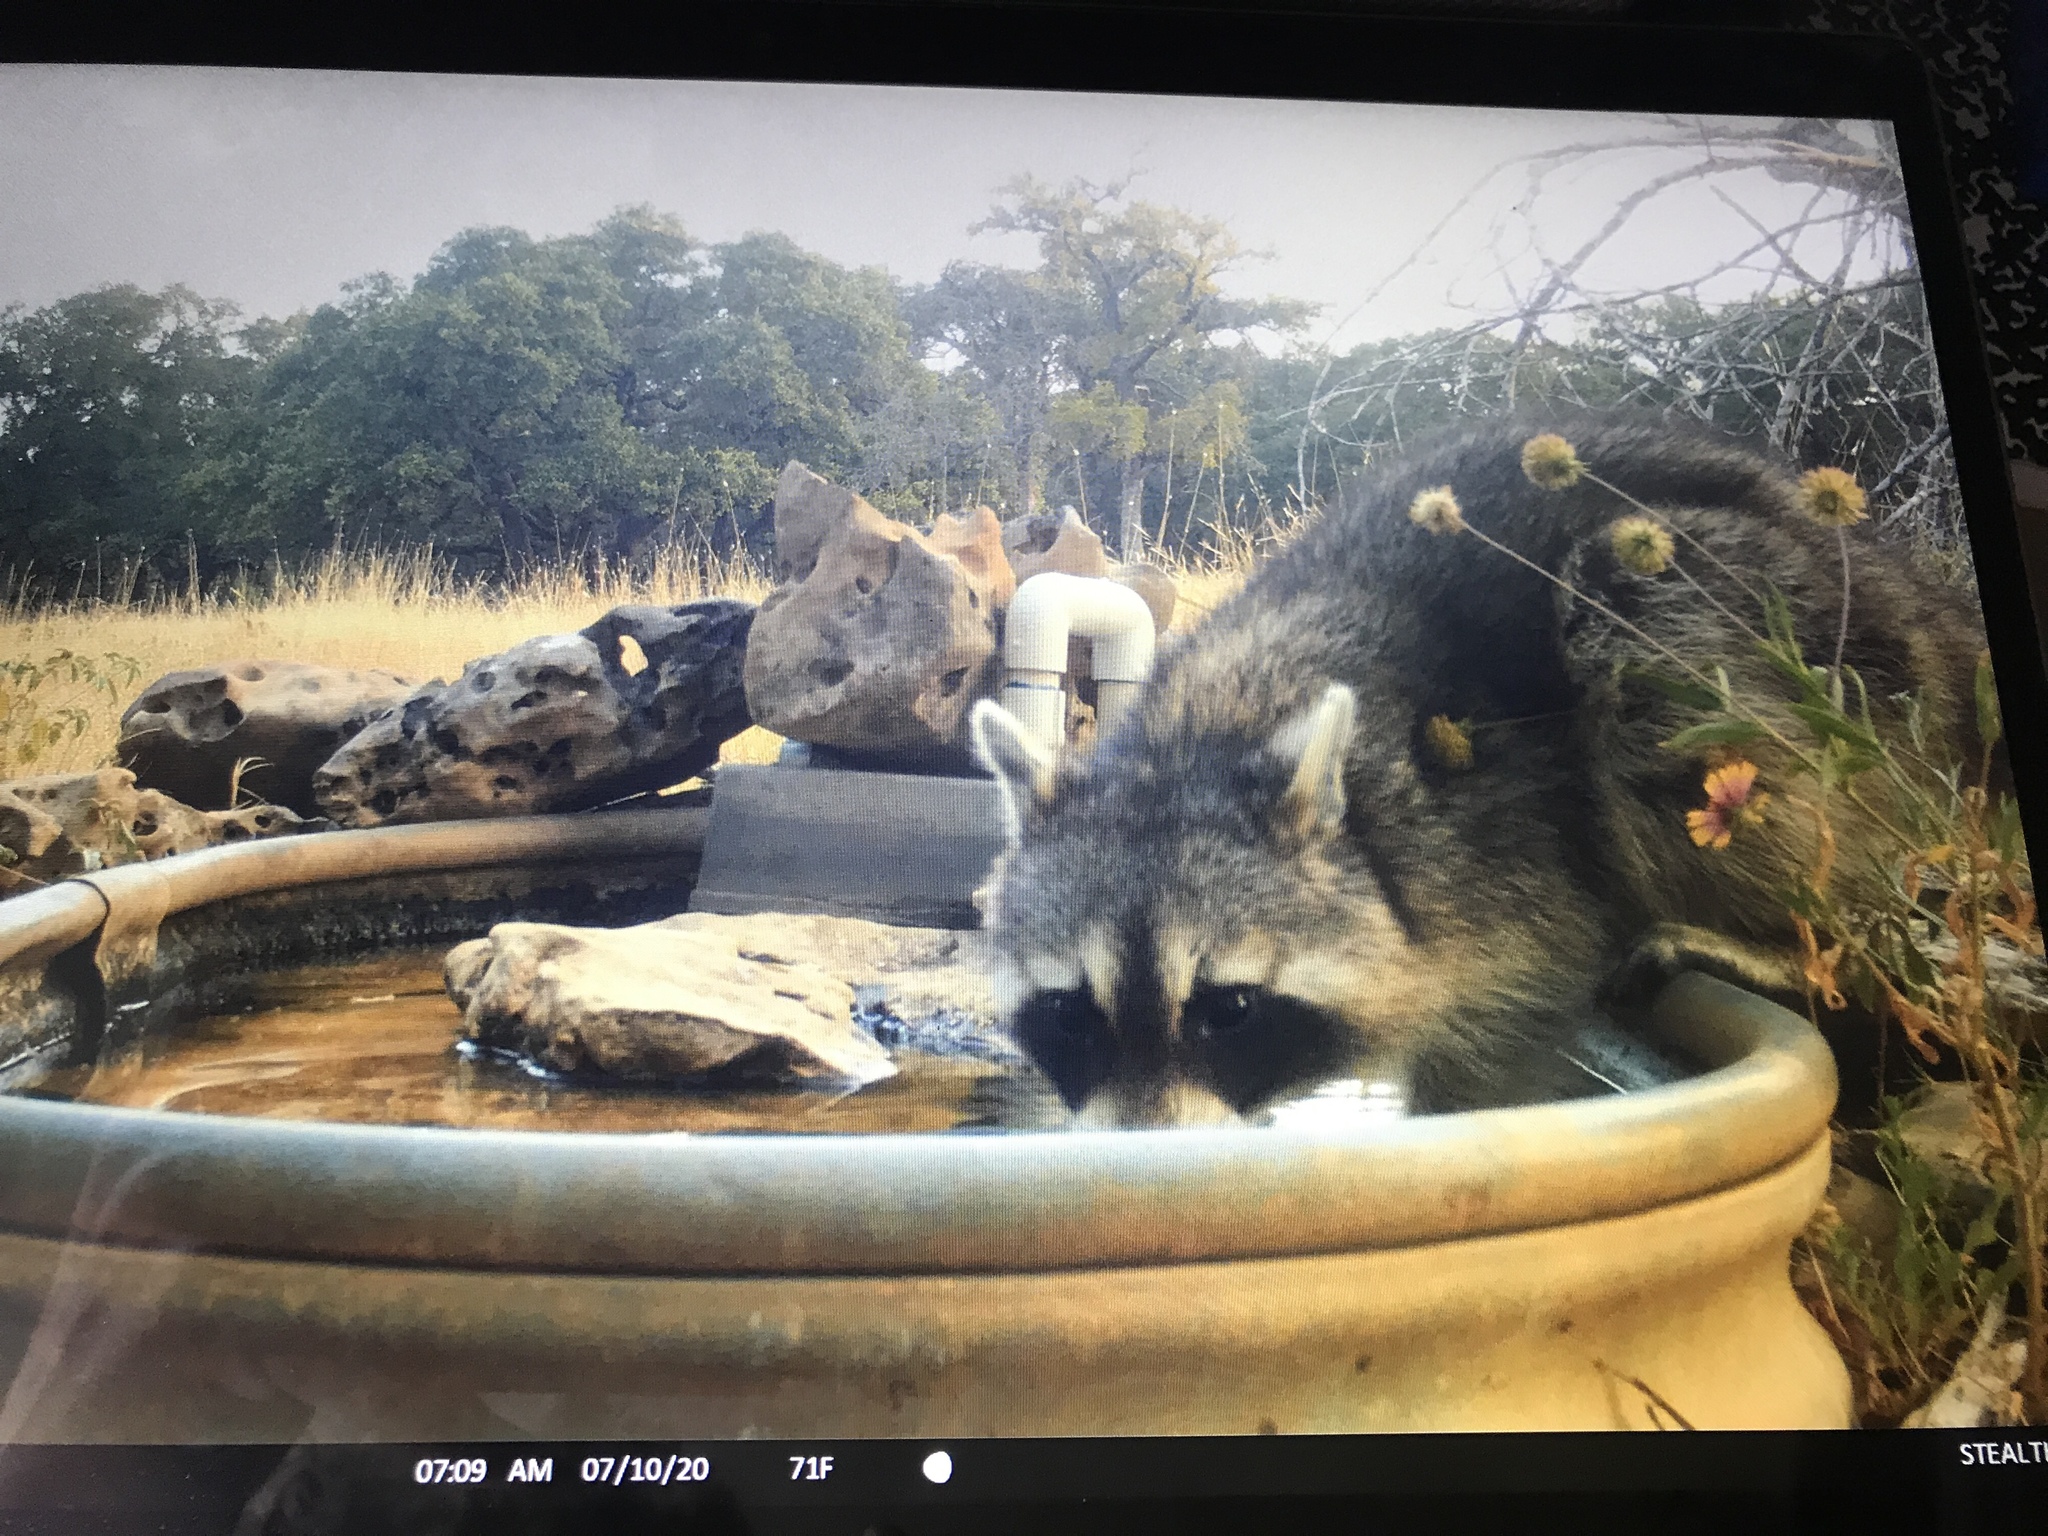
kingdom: Animalia
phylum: Chordata
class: Mammalia
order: Carnivora
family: Procyonidae
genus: Procyon
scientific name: Procyon lotor
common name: Raccoon
